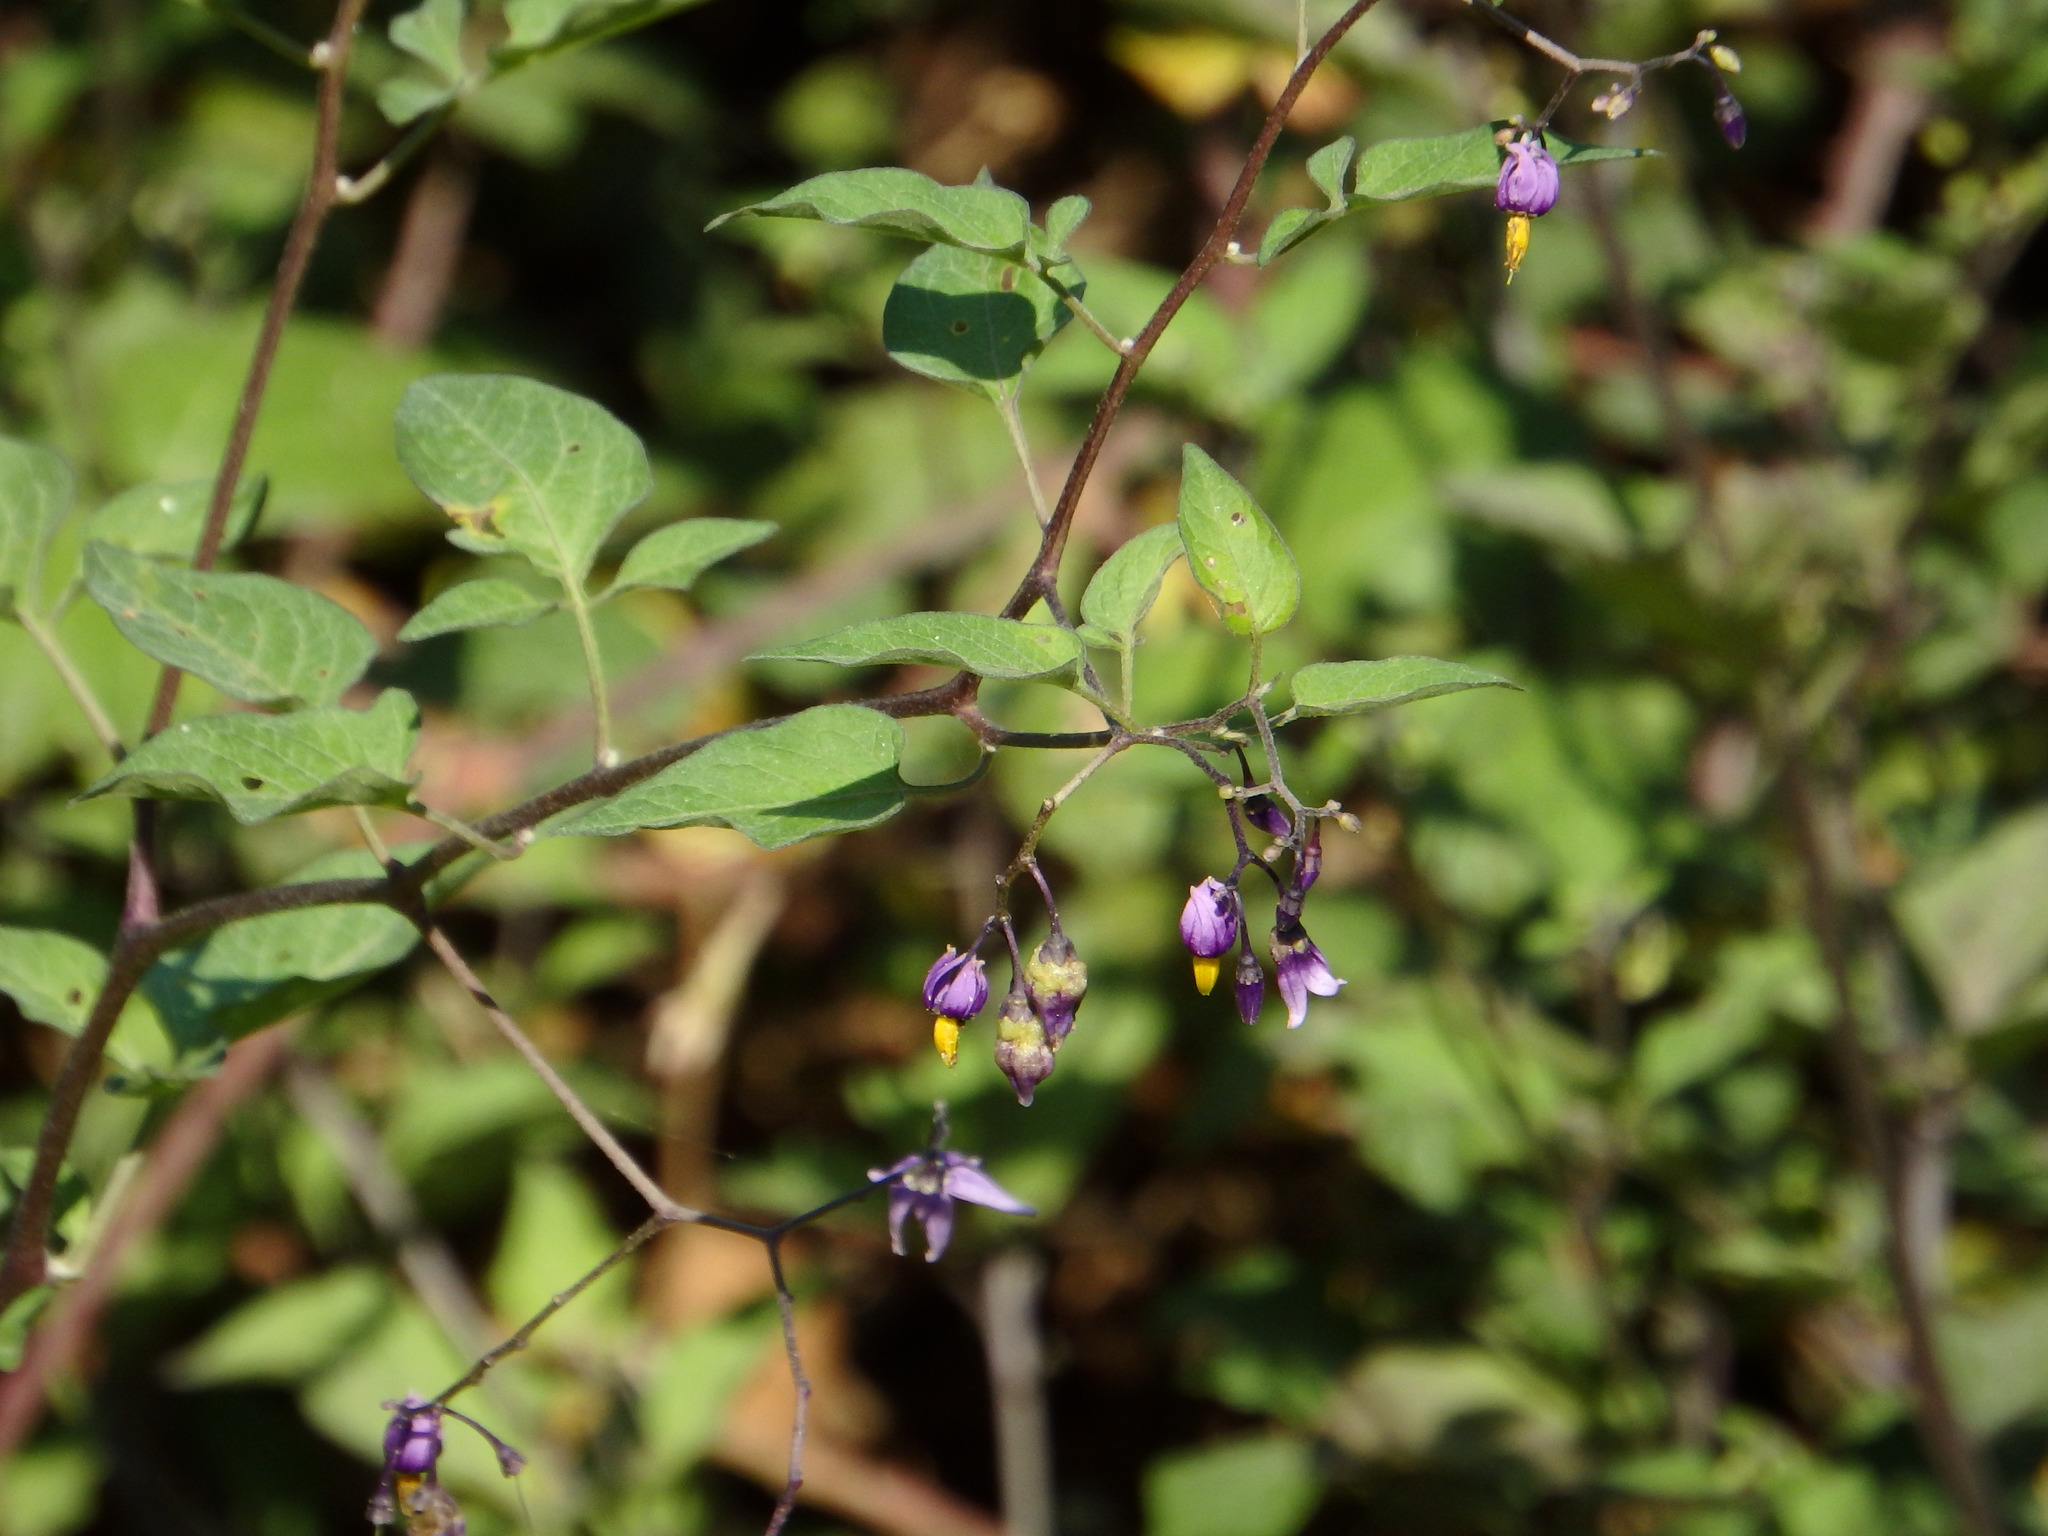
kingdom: Plantae
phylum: Tracheophyta
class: Magnoliopsida
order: Solanales
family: Solanaceae
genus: Solanum
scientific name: Solanum dulcamara
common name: Climbing nightshade
